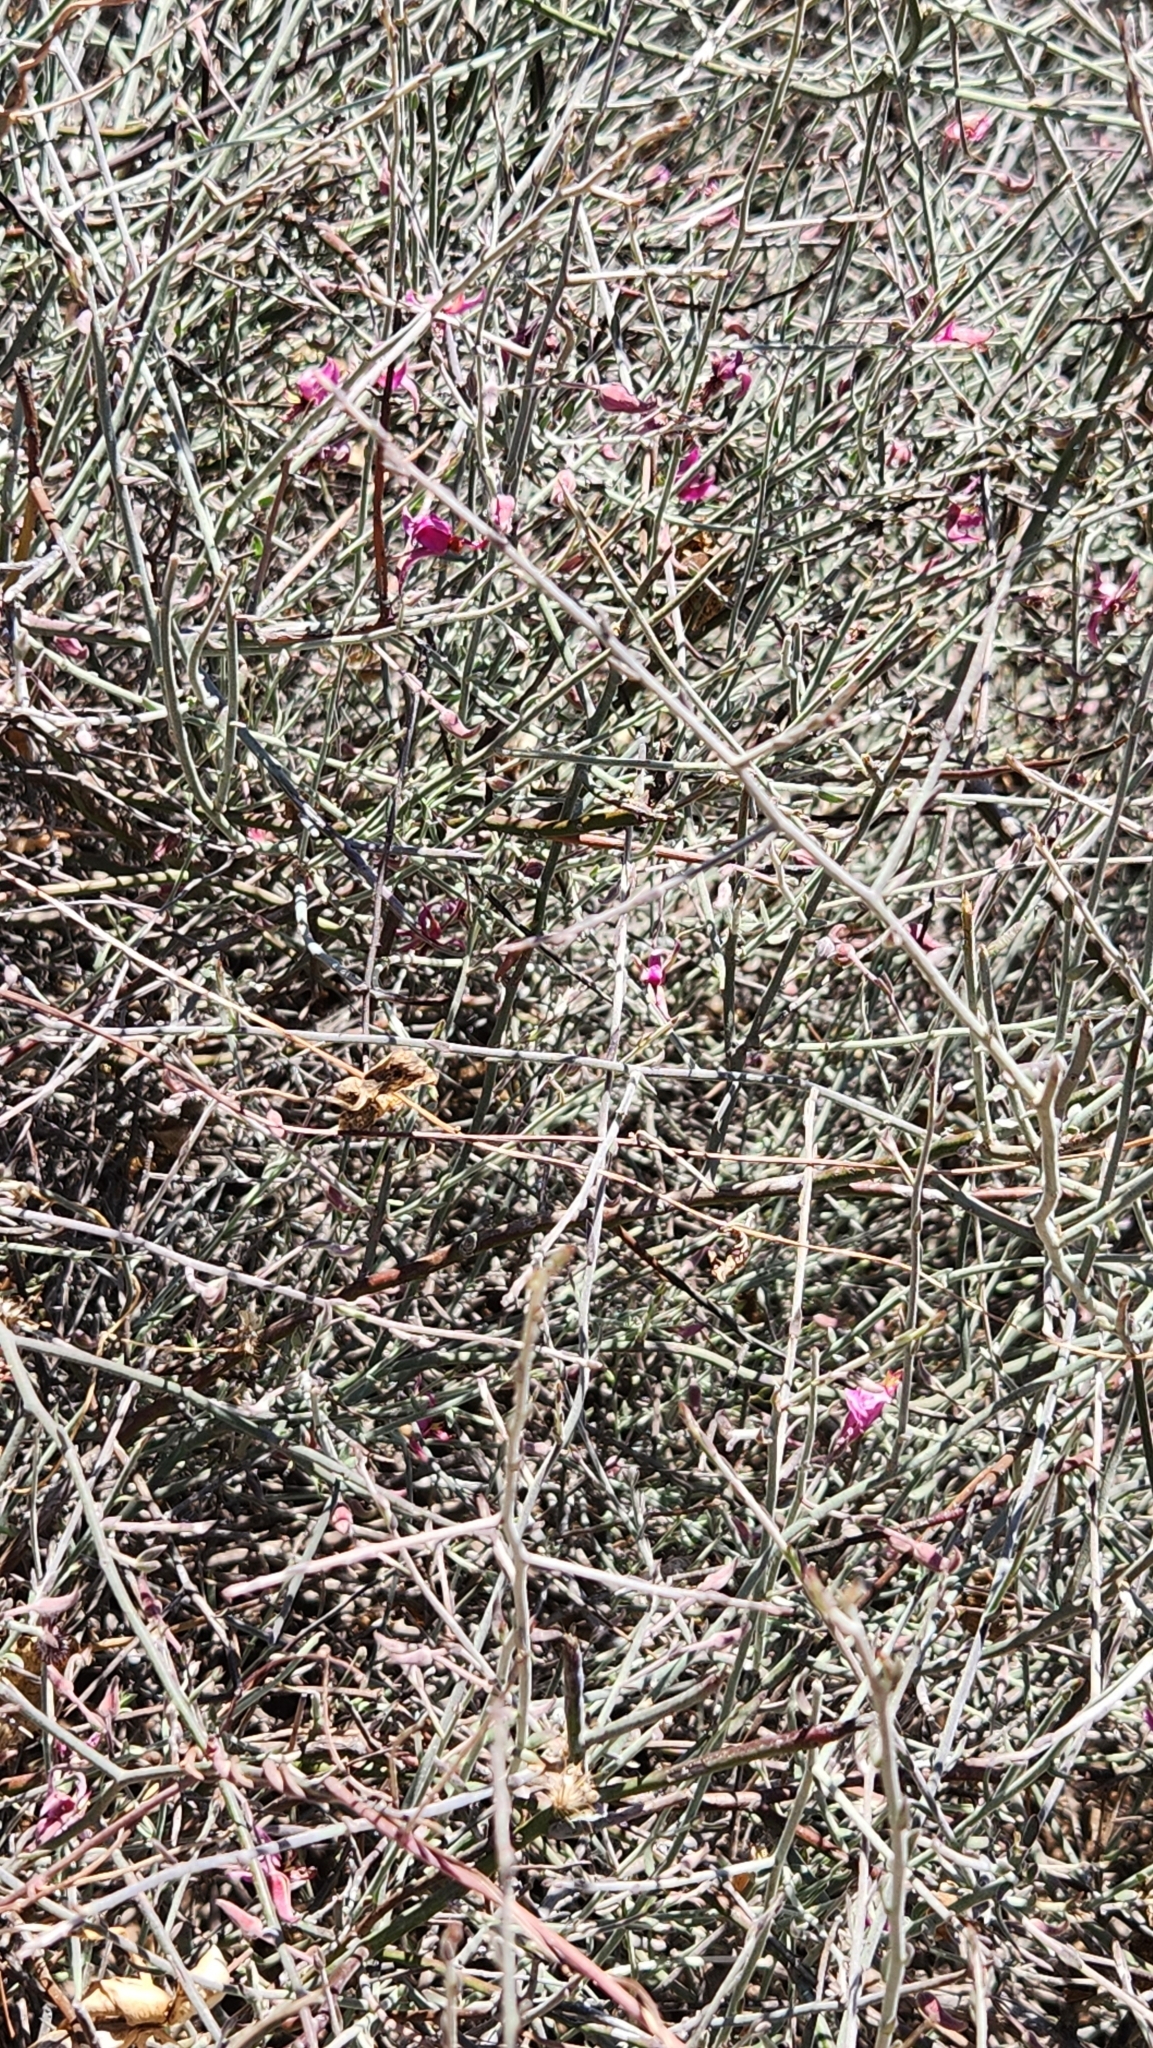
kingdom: Plantae
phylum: Tracheophyta
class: Magnoliopsida
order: Zygophyllales
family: Krameriaceae
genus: Krameria
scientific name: Krameria bicolor
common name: White ratany
